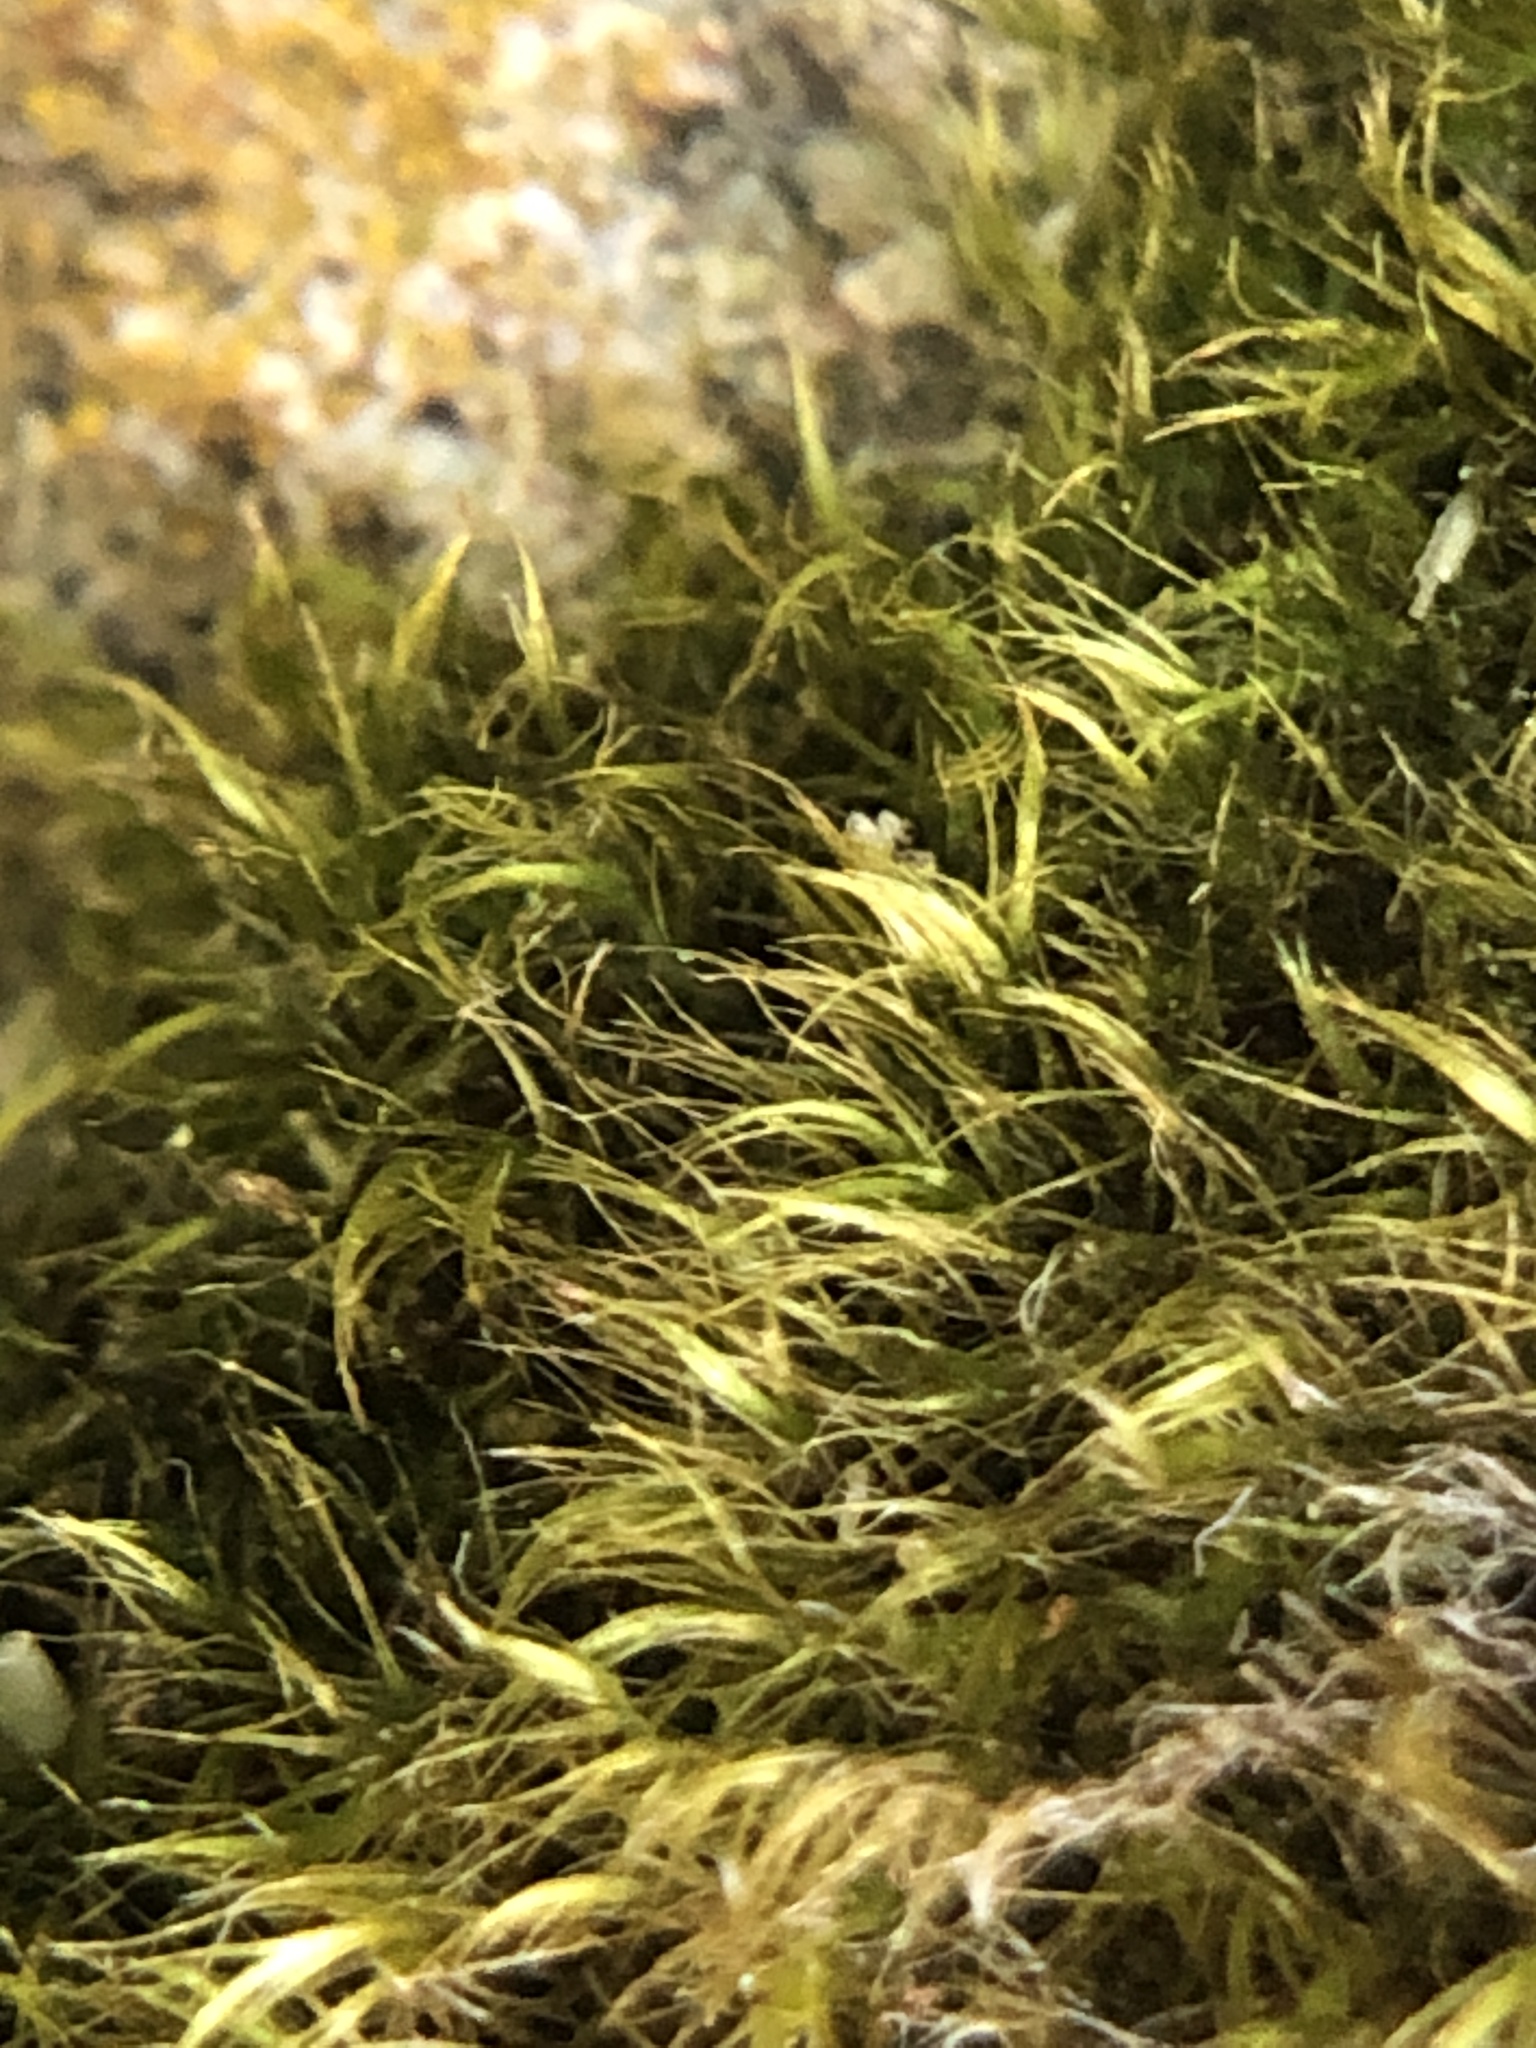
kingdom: Plantae
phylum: Bryophyta
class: Bryopsida
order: Hypnales
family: Brachytheciaceae
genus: Rhynchostegiella
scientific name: Rhynchostegiella tenella
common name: Tender feather-moss
